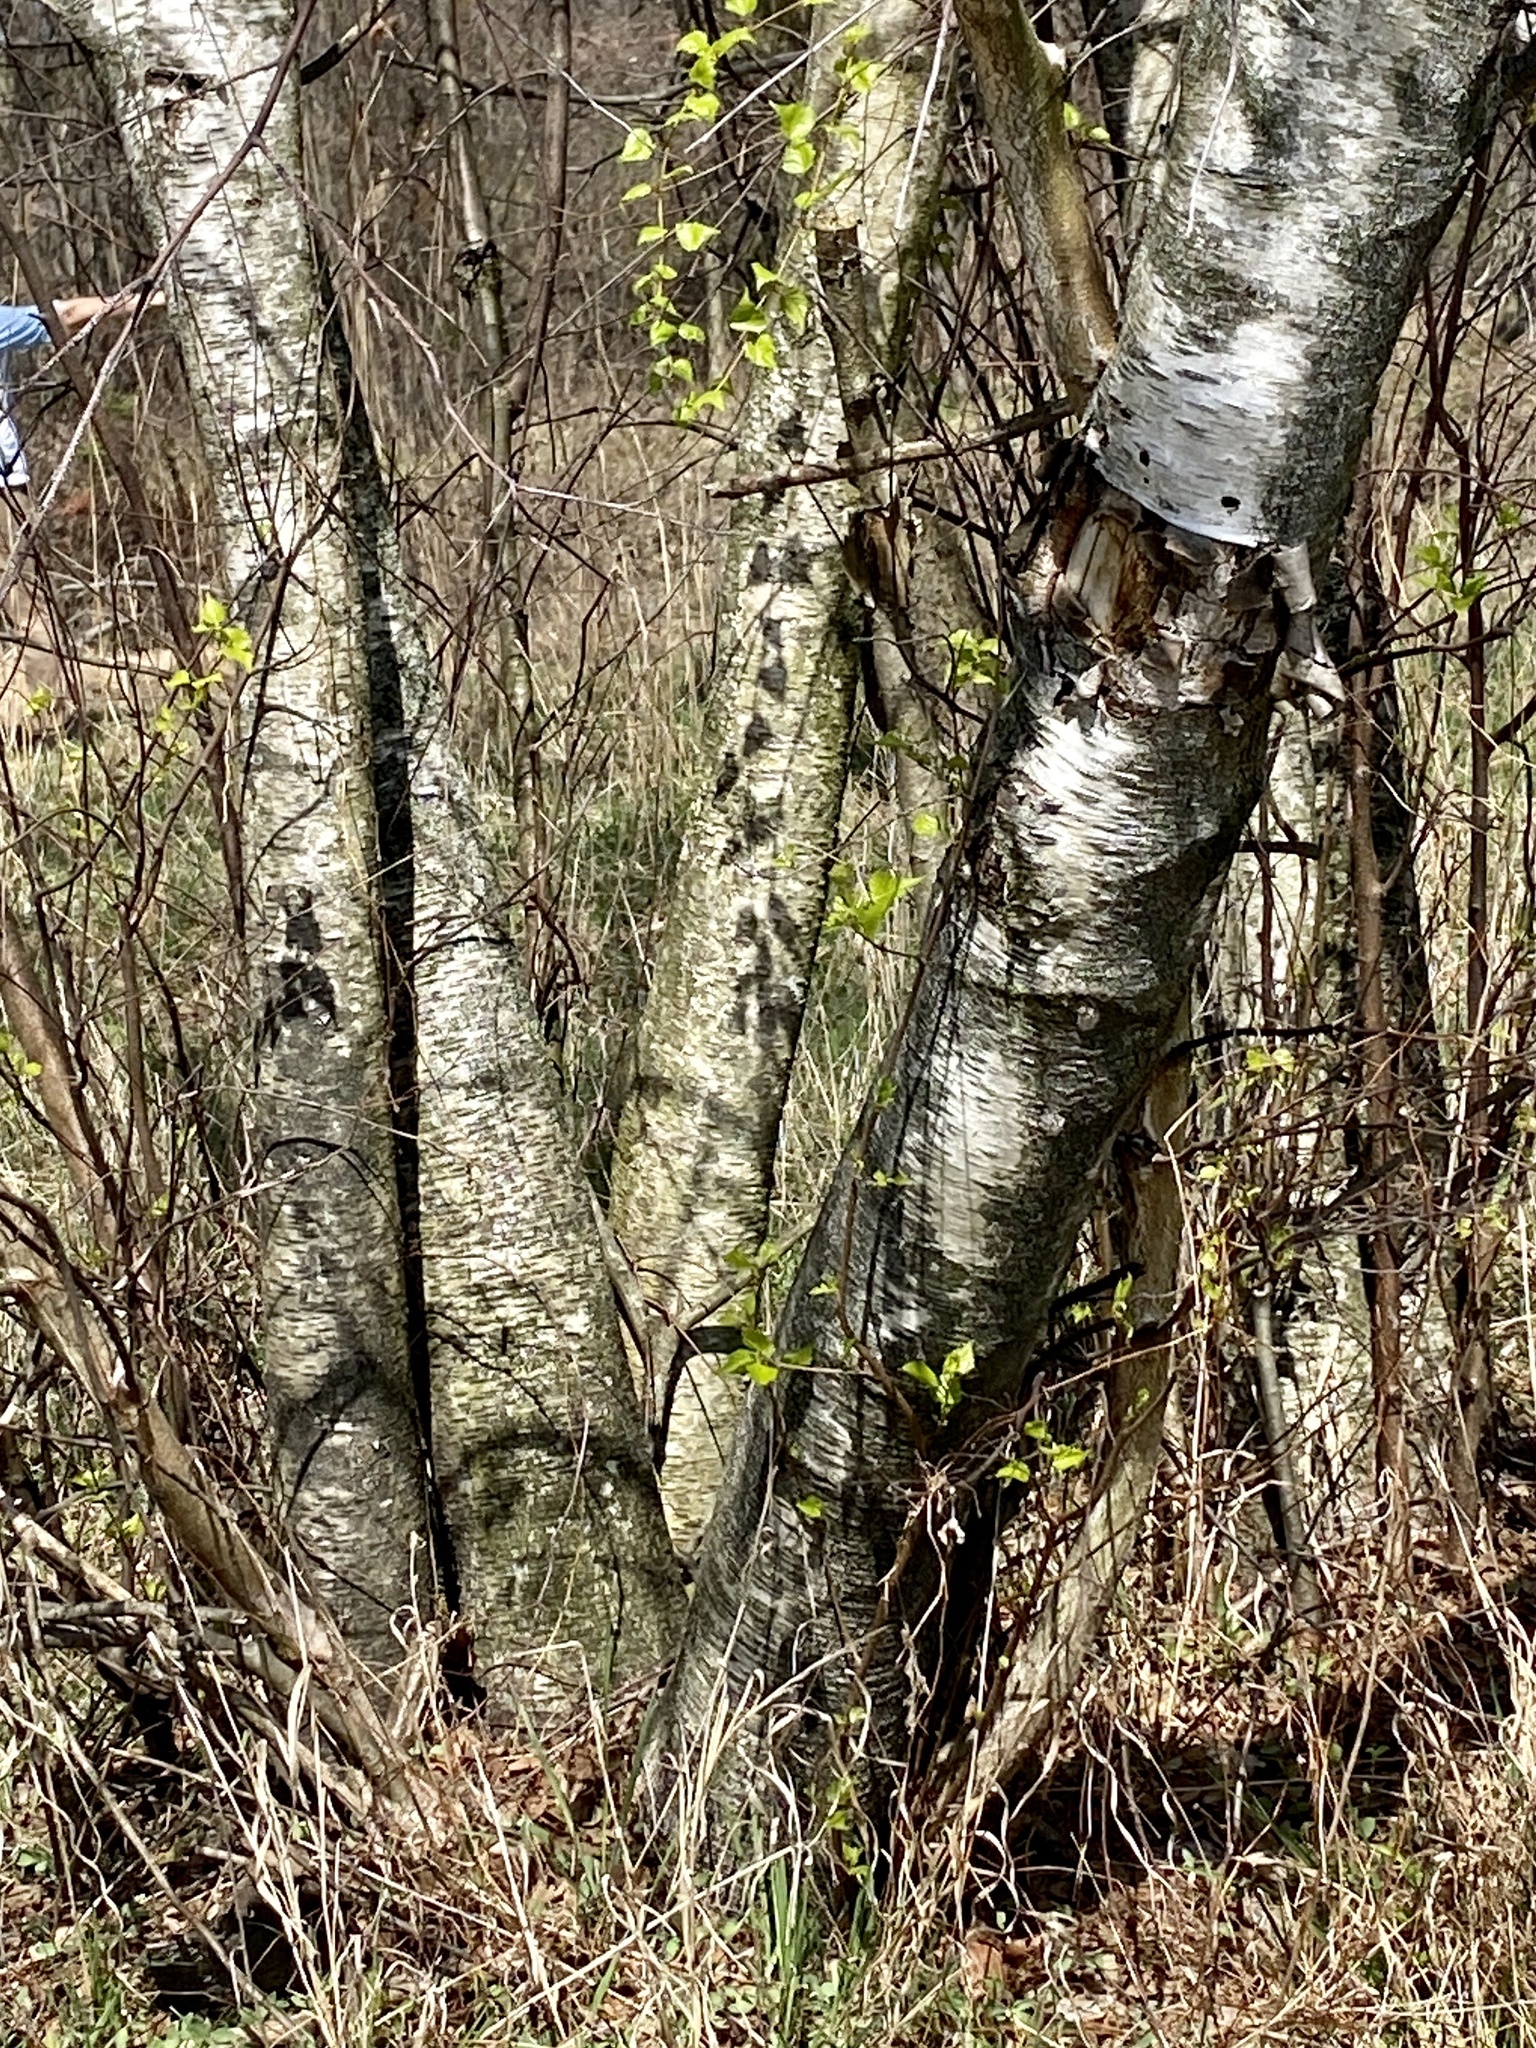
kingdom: Plantae
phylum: Tracheophyta
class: Magnoliopsida
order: Fagales
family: Betulaceae
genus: Betula
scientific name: Betula populifolia
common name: Fire birch
